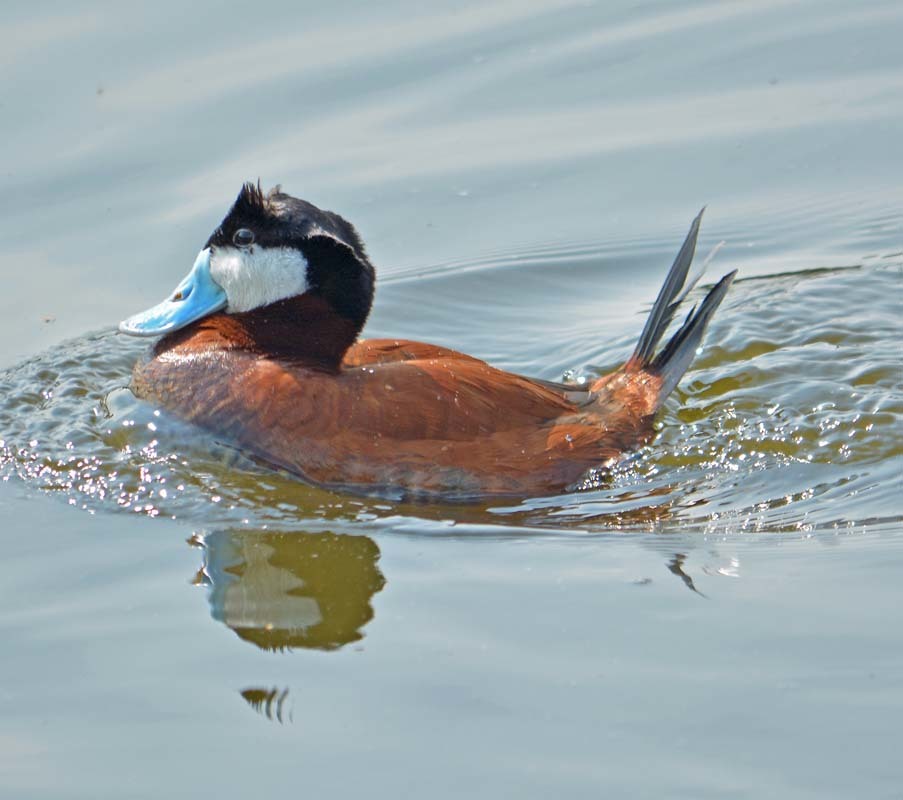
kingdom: Animalia
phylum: Chordata
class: Aves
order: Anseriformes
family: Anatidae
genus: Oxyura
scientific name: Oxyura jamaicensis
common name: Ruddy duck
